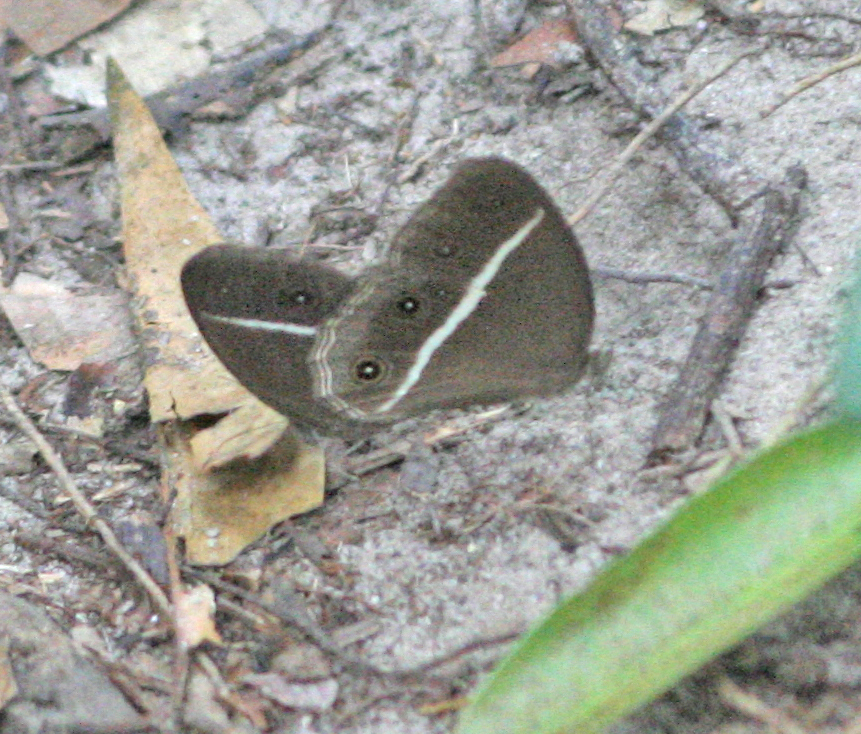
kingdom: Animalia
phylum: Arthropoda
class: Insecta
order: Lepidoptera
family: Nymphalidae
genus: Orsotriaena
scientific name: Orsotriaena medus
